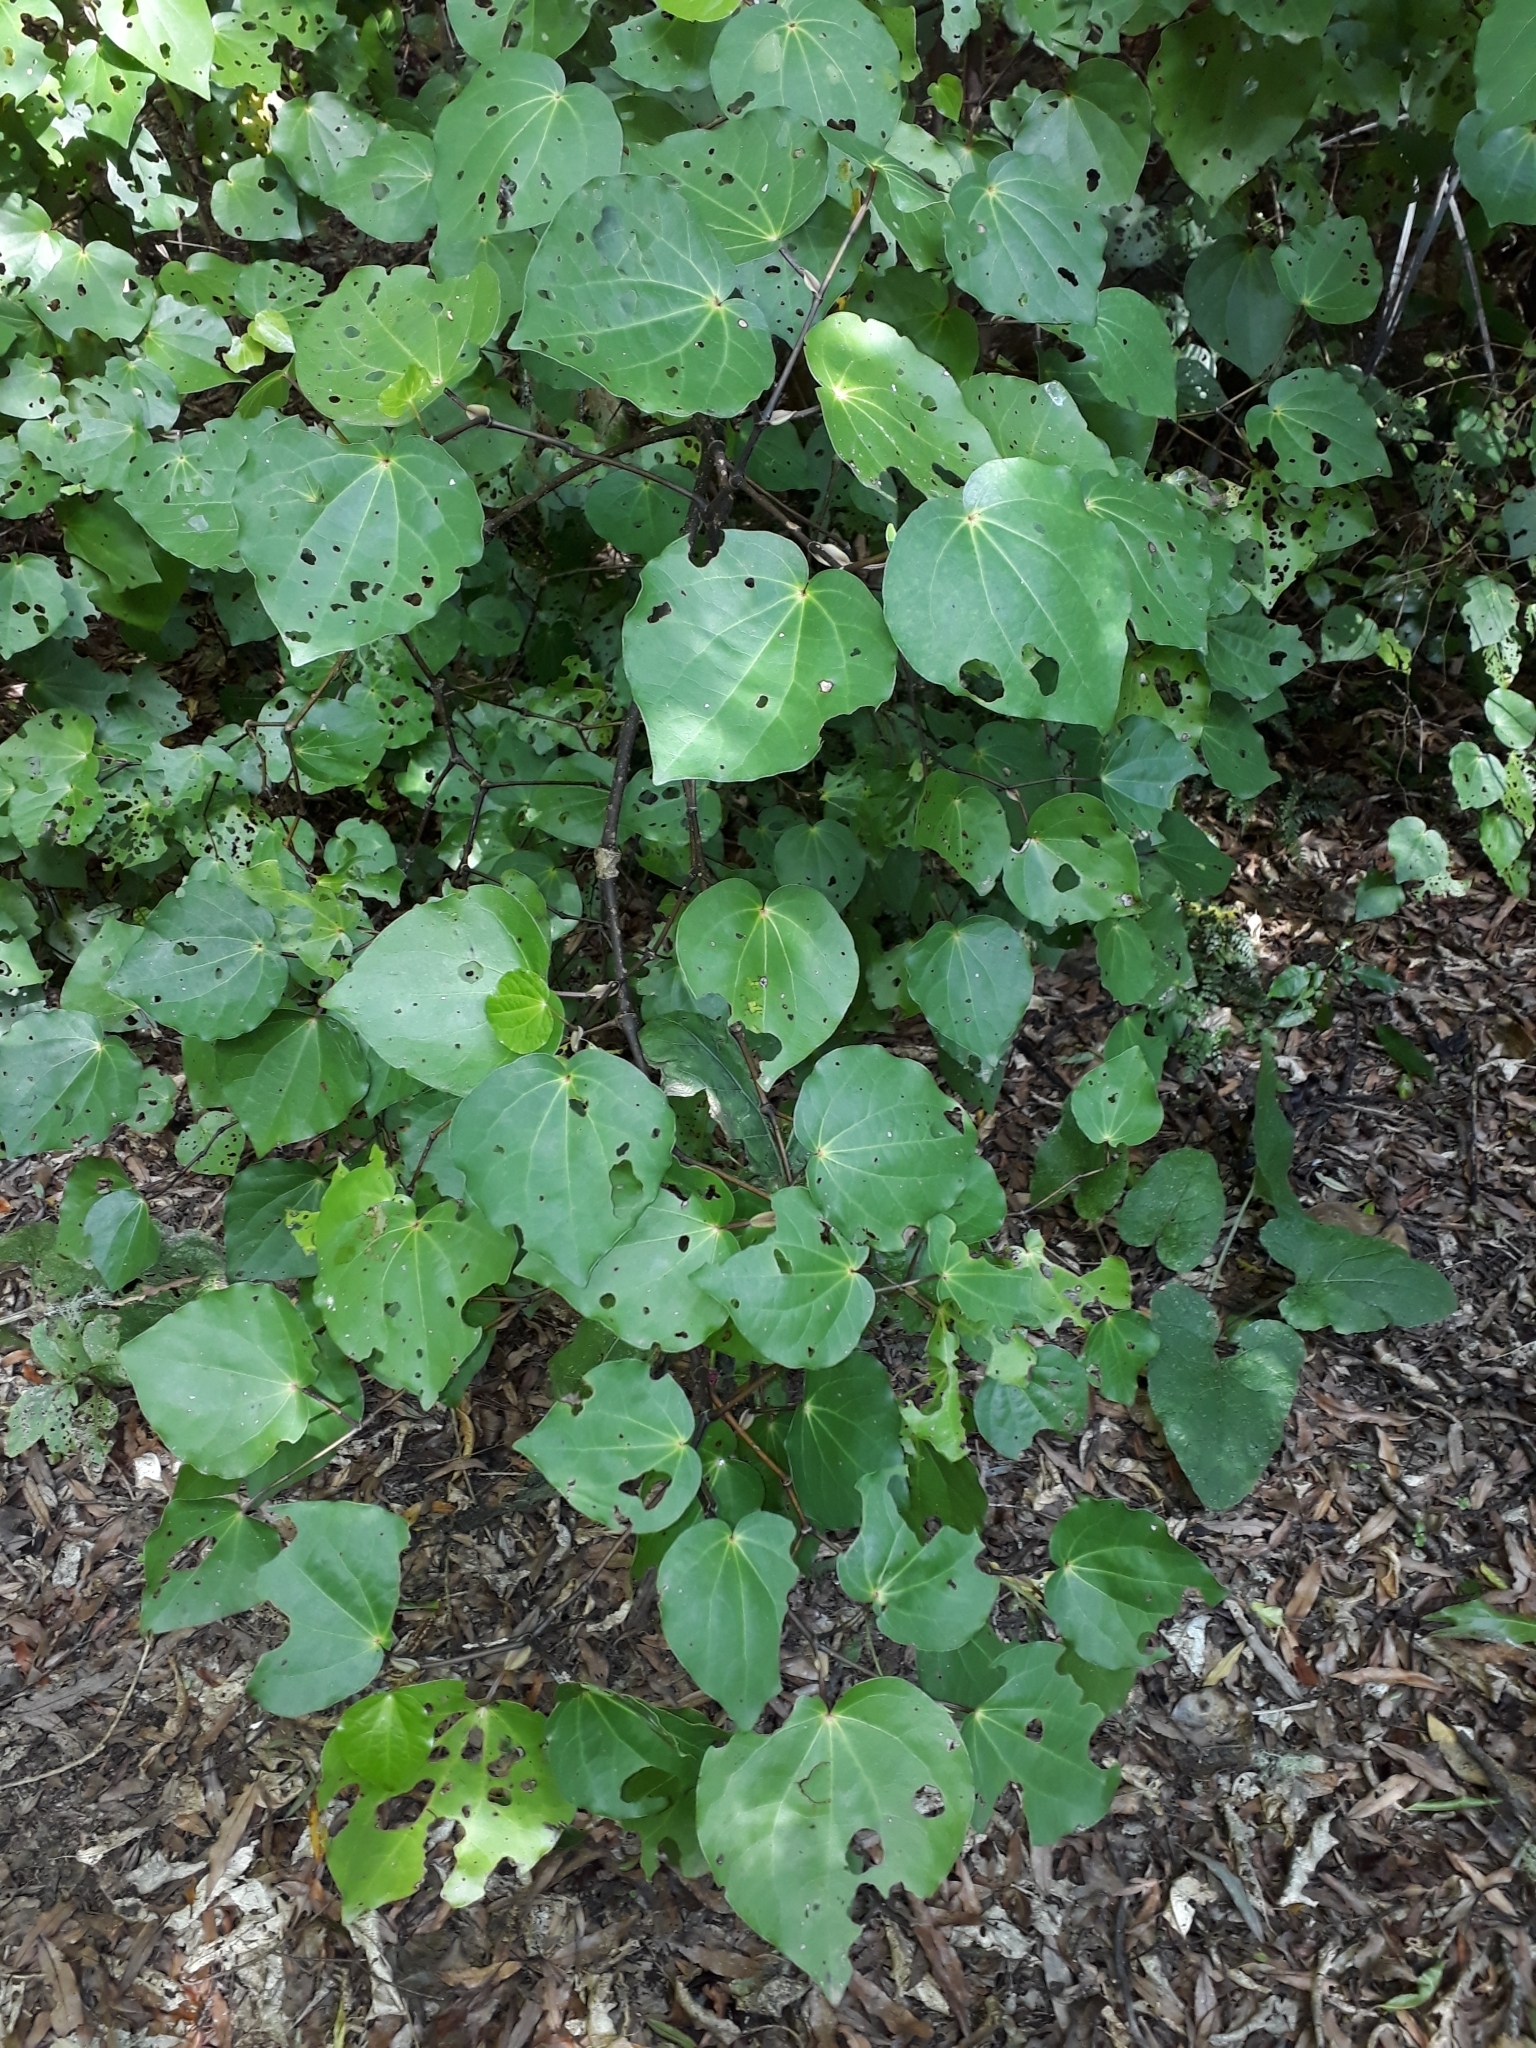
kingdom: Plantae
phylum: Tracheophyta
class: Magnoliopsida
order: Piperales
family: Piperaceae
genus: Macropiper
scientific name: Macropiper excelsum
